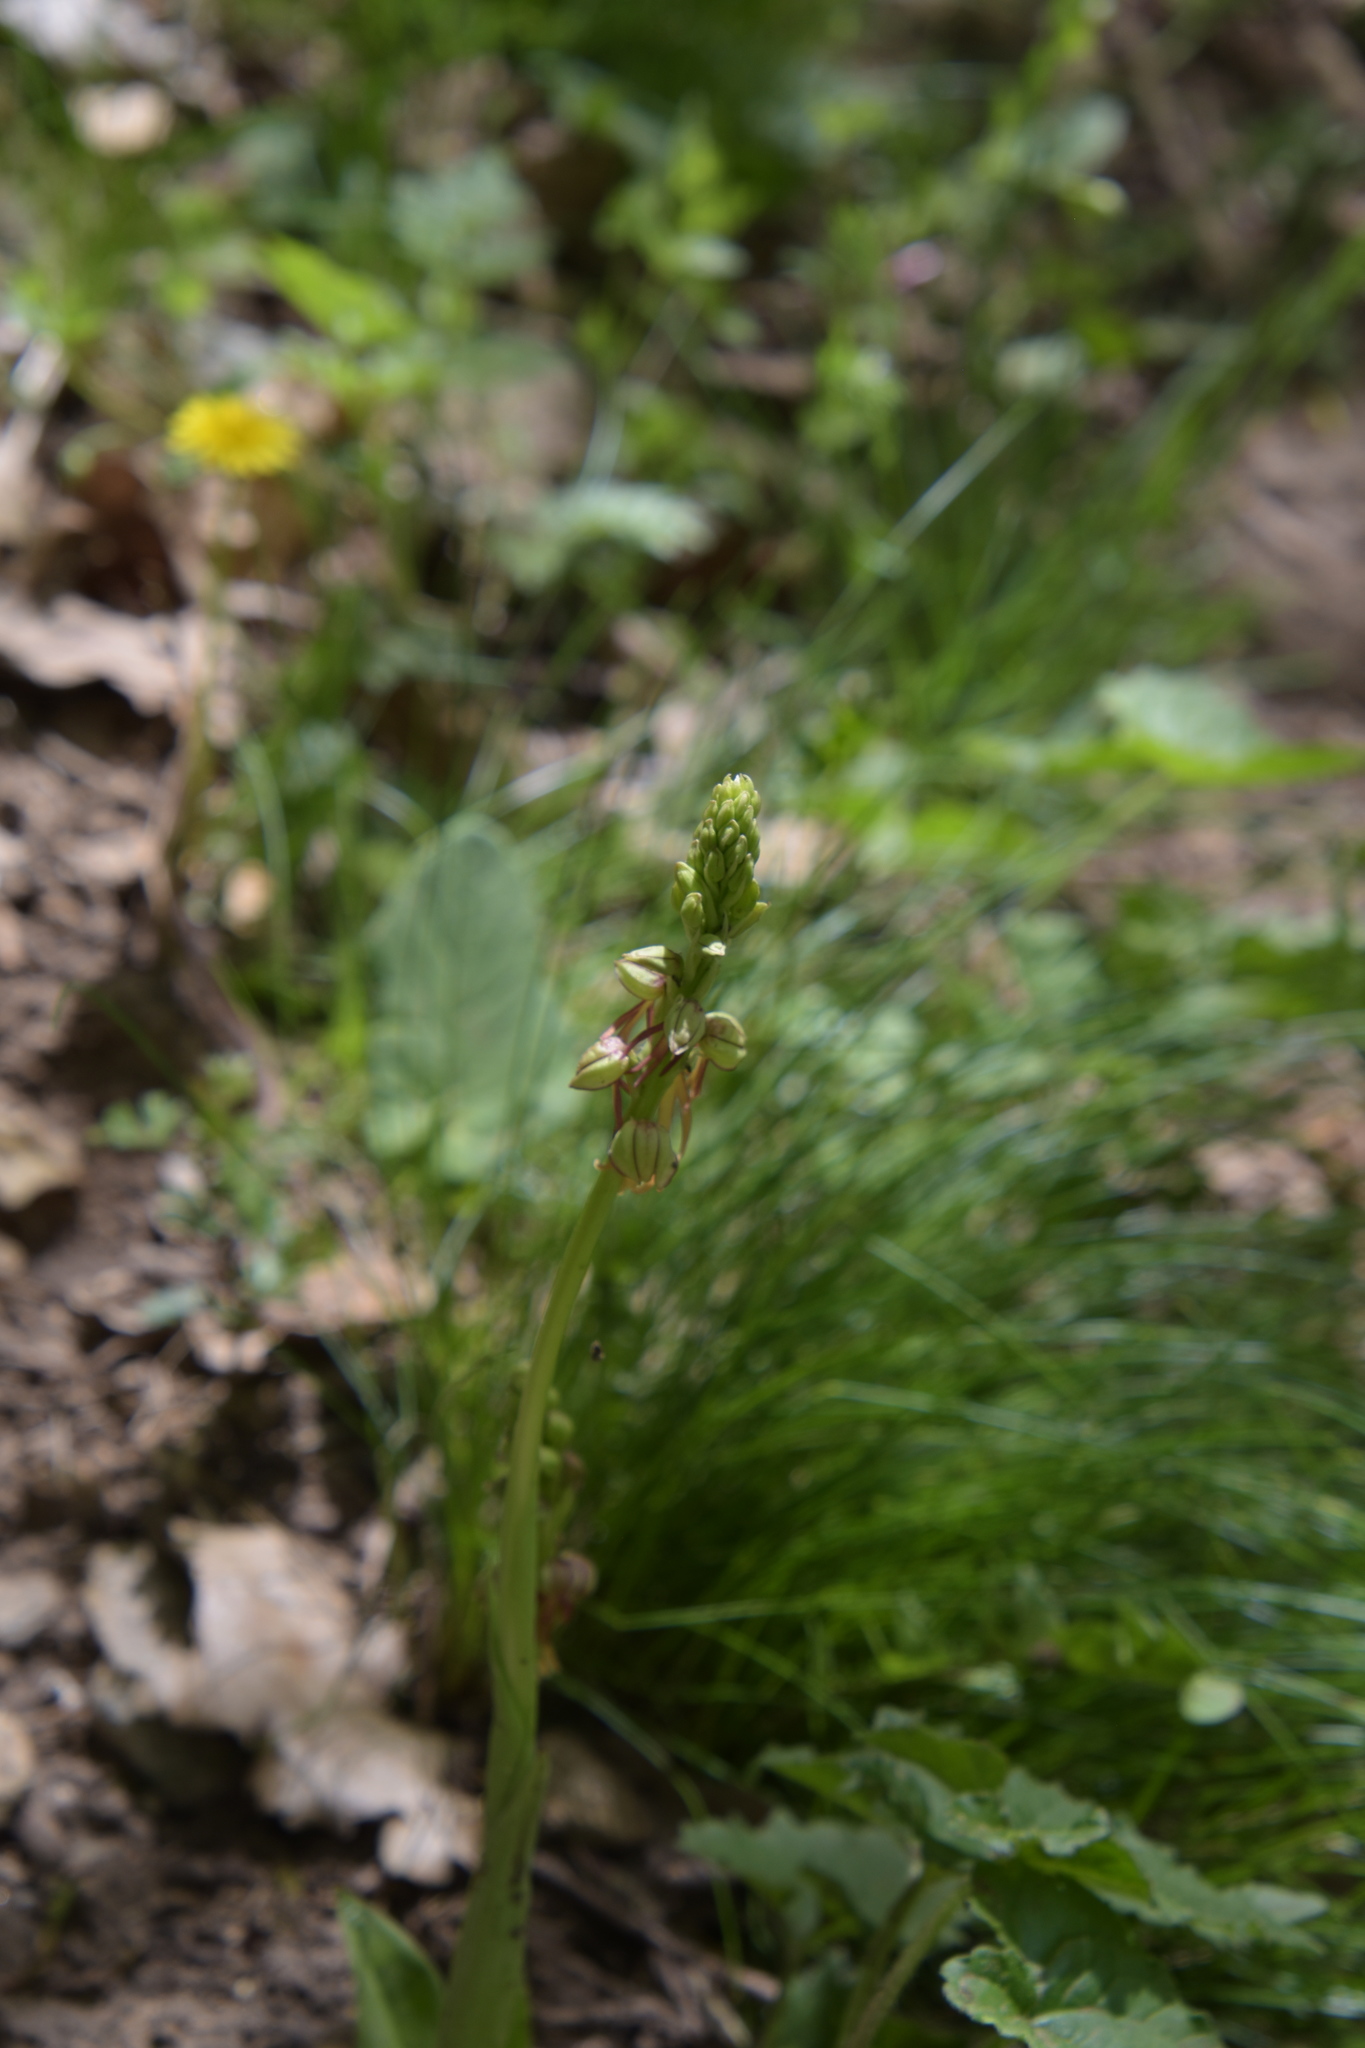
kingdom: Plantae
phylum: Tracheophyta
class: Liliopsida
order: Asparagales
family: Orchidaceae
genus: Orchis
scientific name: Orchis anthropophora
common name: Man orchid
